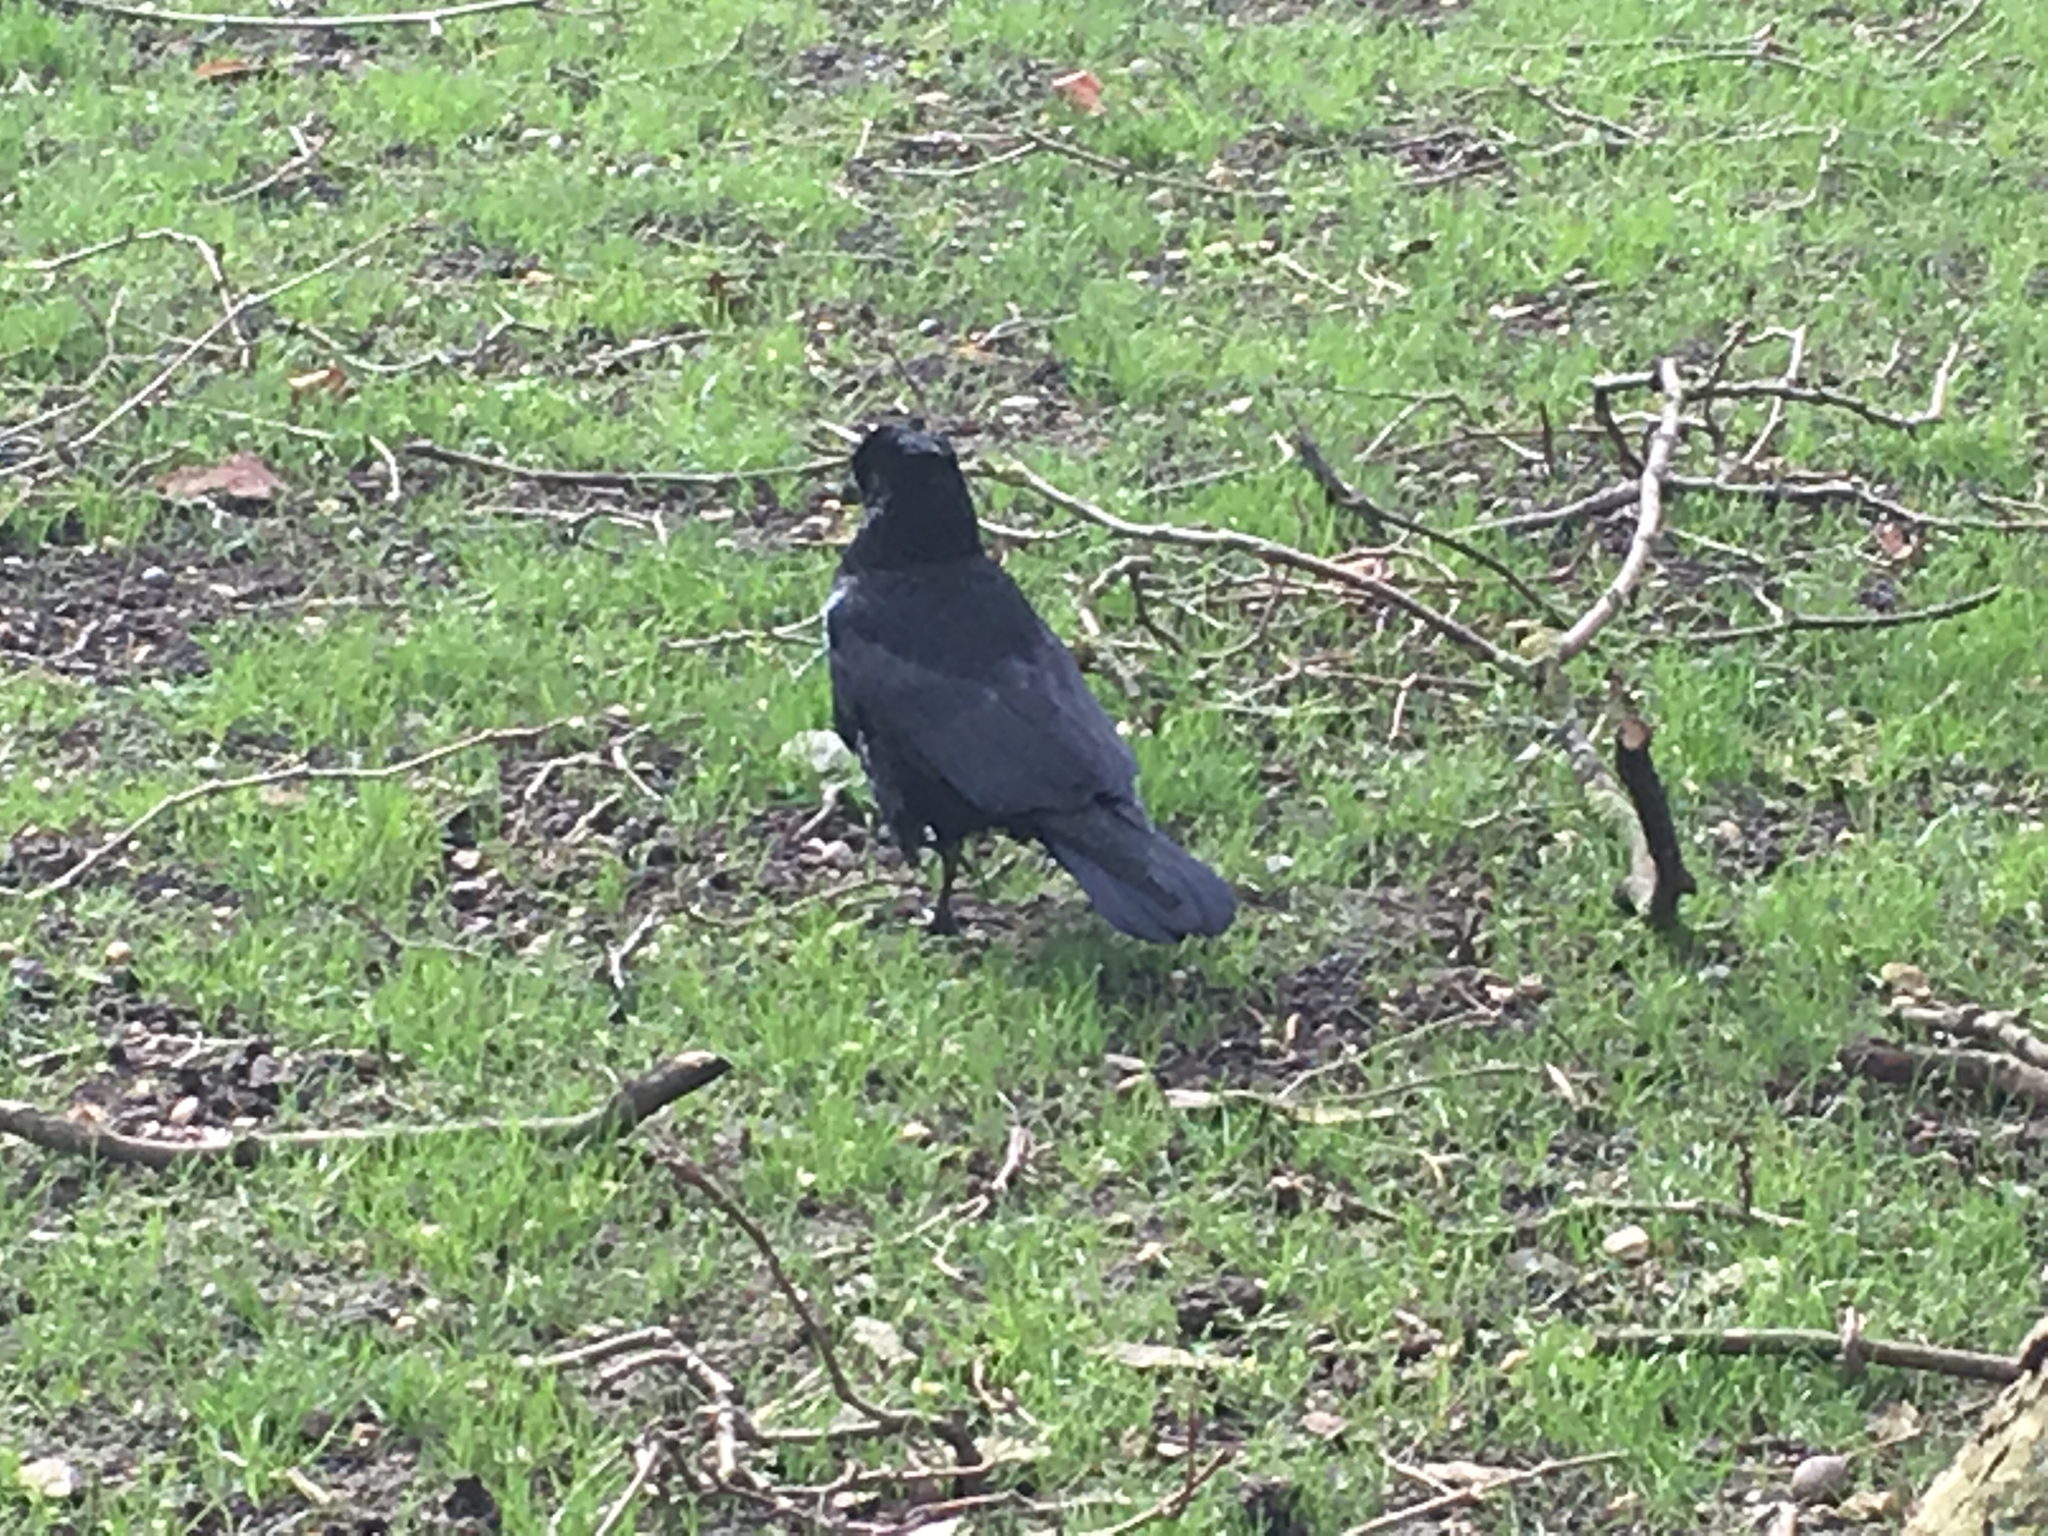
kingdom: Animalia
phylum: Chordata
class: Aves
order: Passeriformes
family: Corvidae
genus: Corvus
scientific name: Corvus frugilegus
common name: Rook
